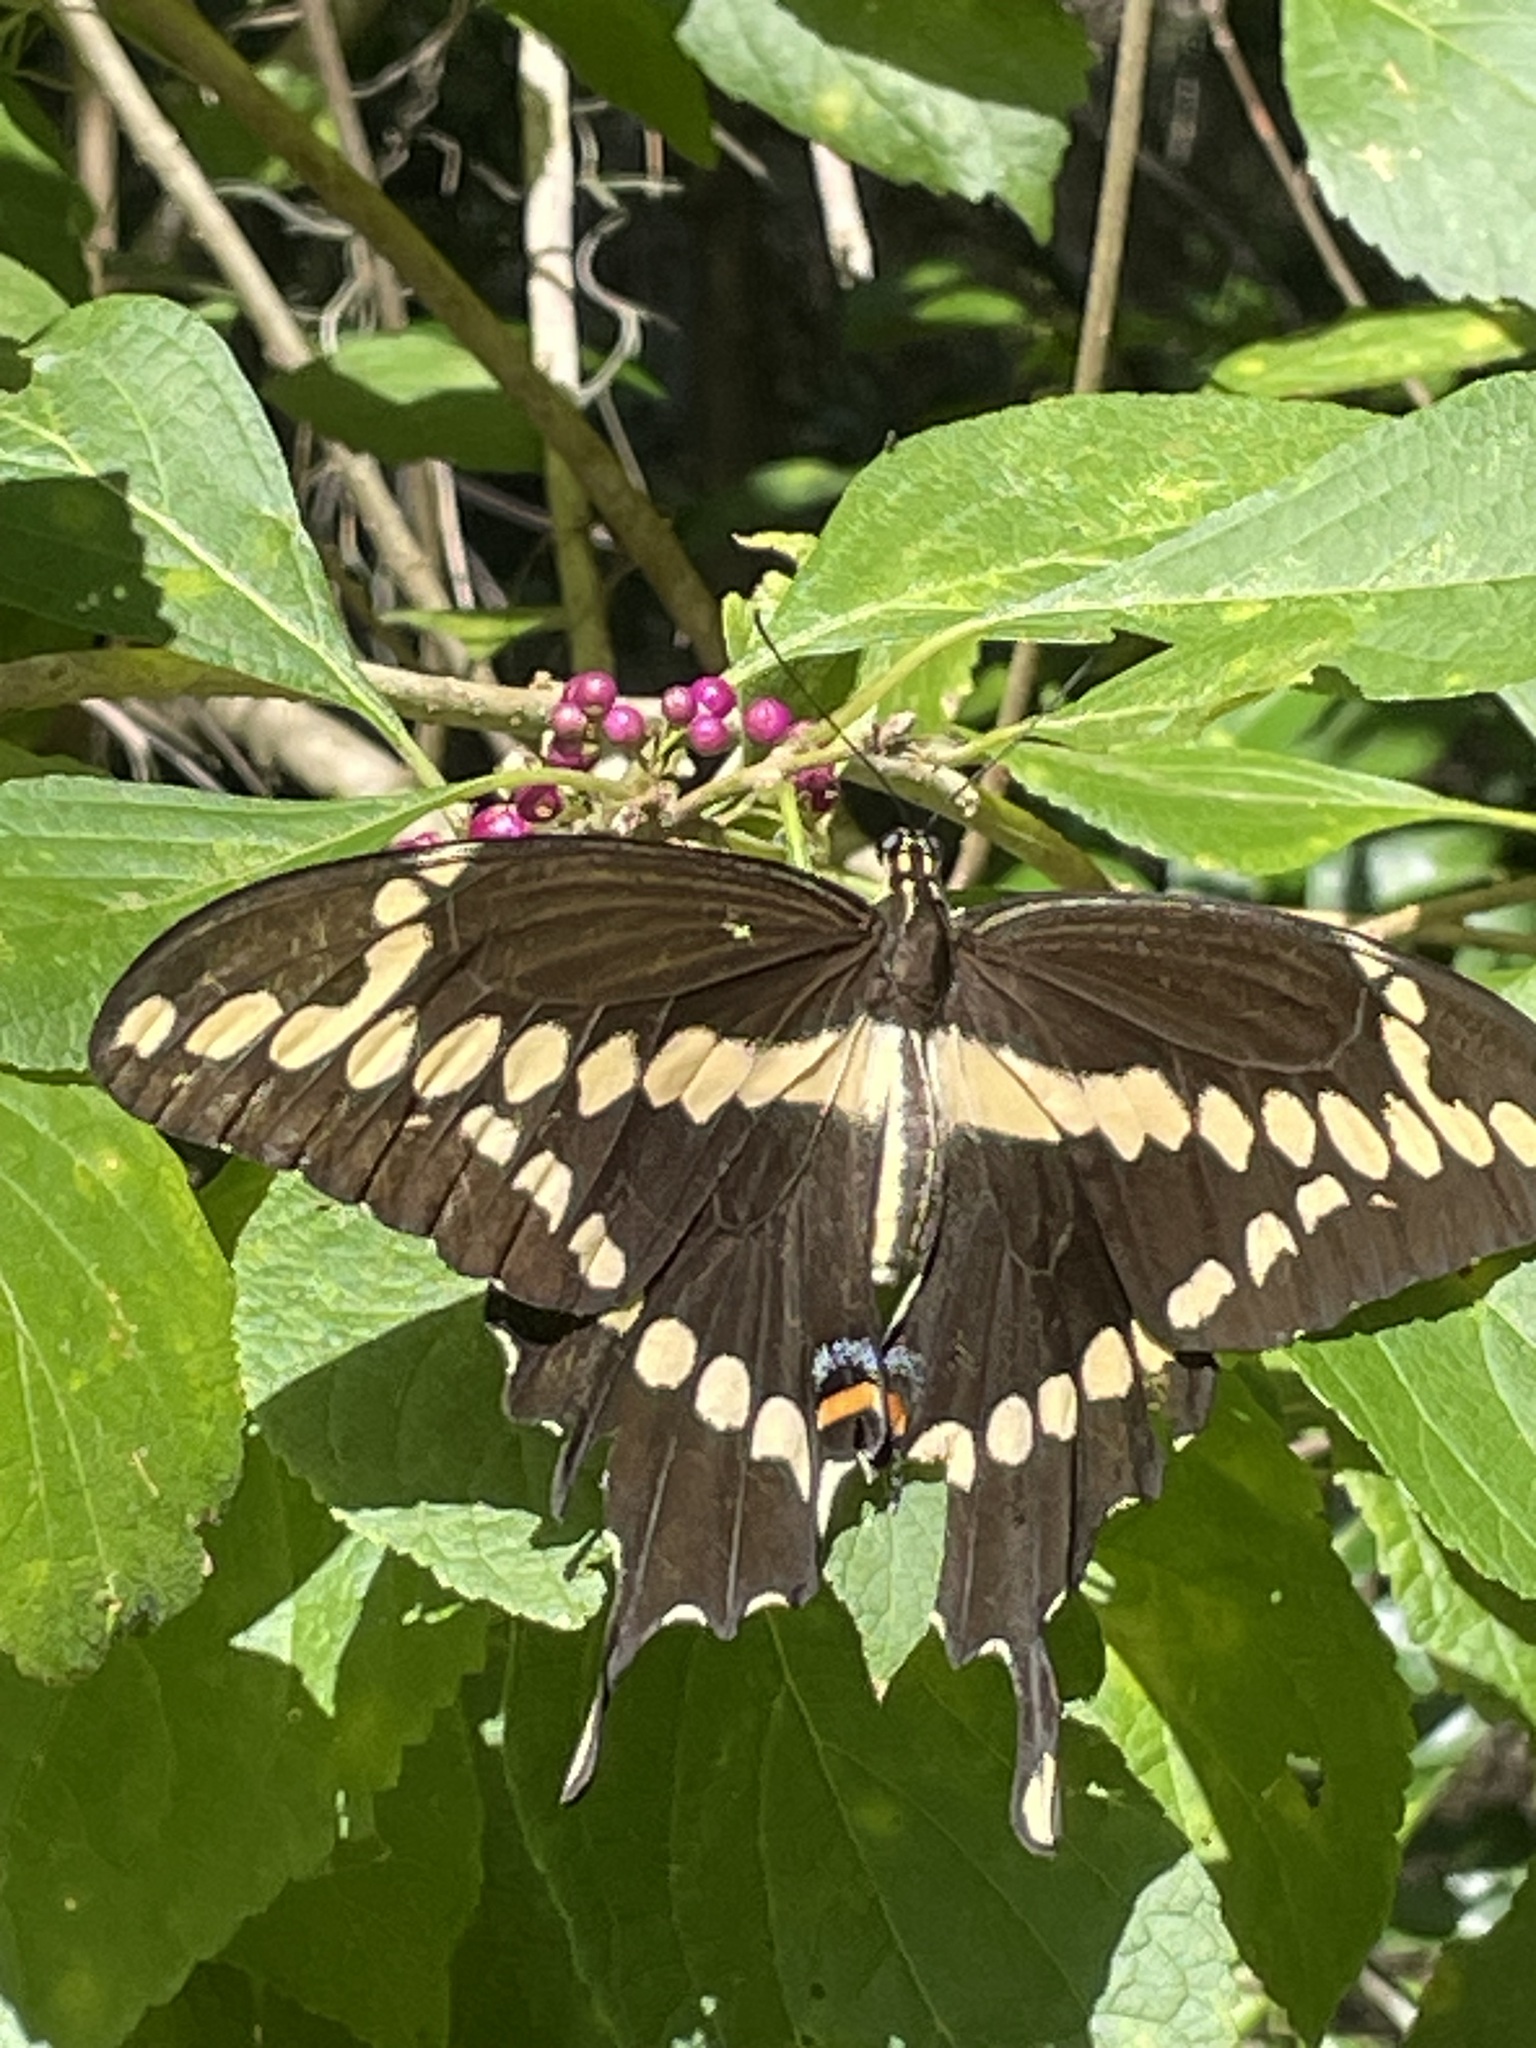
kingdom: Animalia
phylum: Arthropoda
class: Insecta
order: Lepidoptera
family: Papilionidae
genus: Papilio
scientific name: Papilio cresphontes
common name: Giant swallowtail
